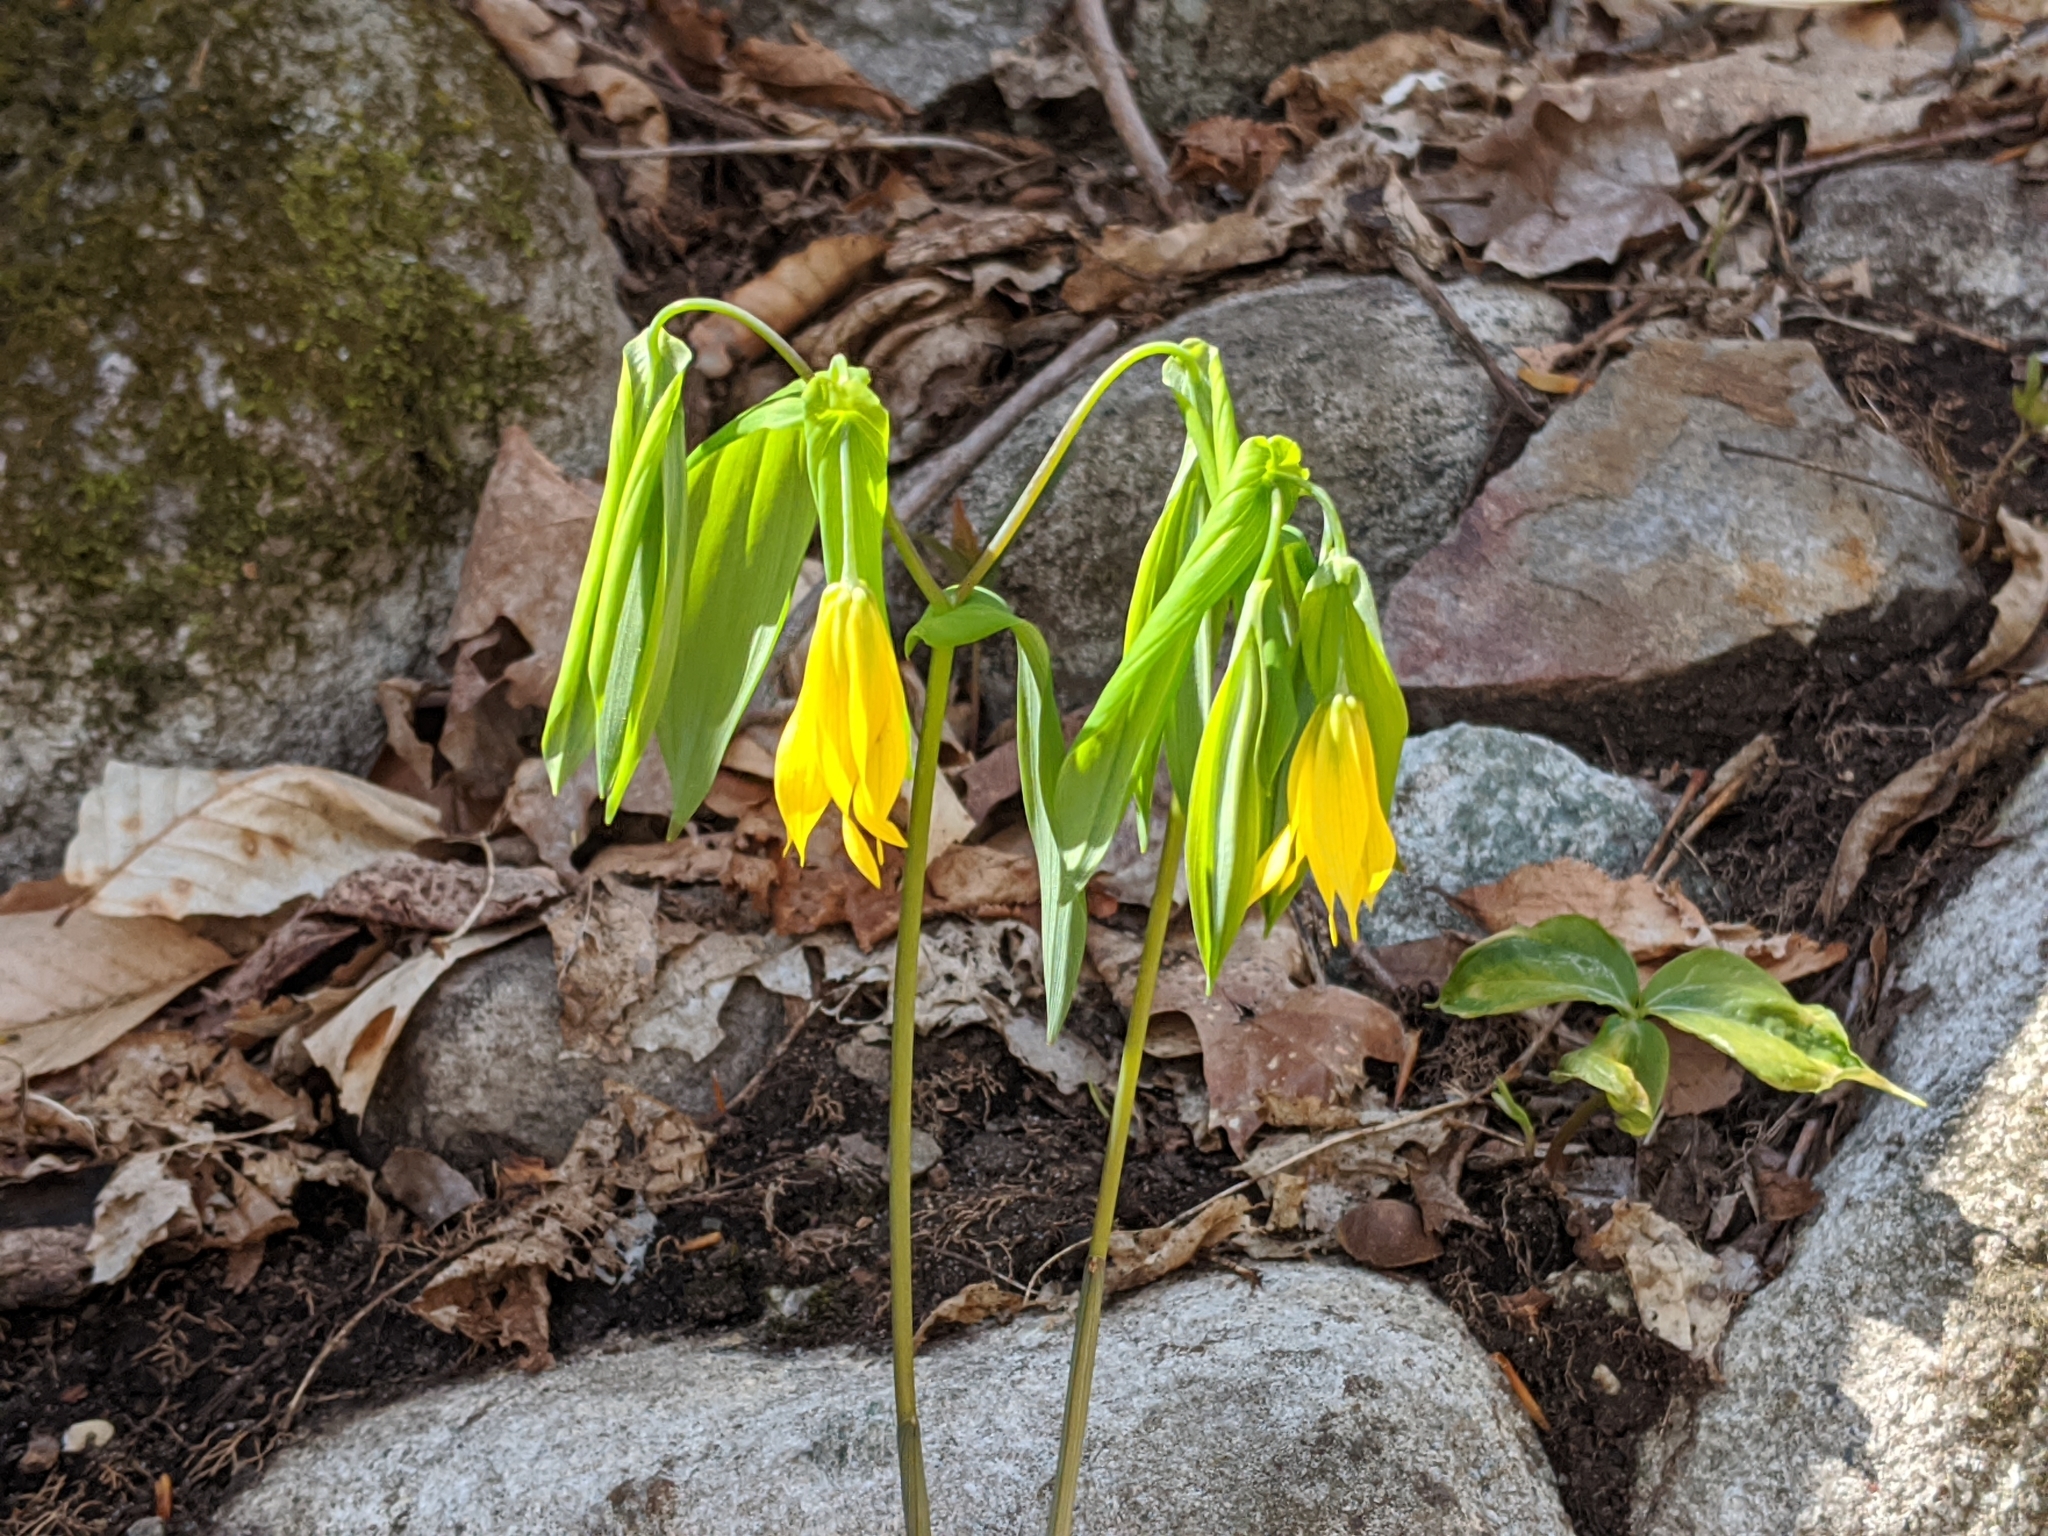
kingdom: Plantae
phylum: Tracheophyta
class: Liliopsida
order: Liliales
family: Colchicaceae
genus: Uvularia
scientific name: Uvularia grandiflora
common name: Bellwort
